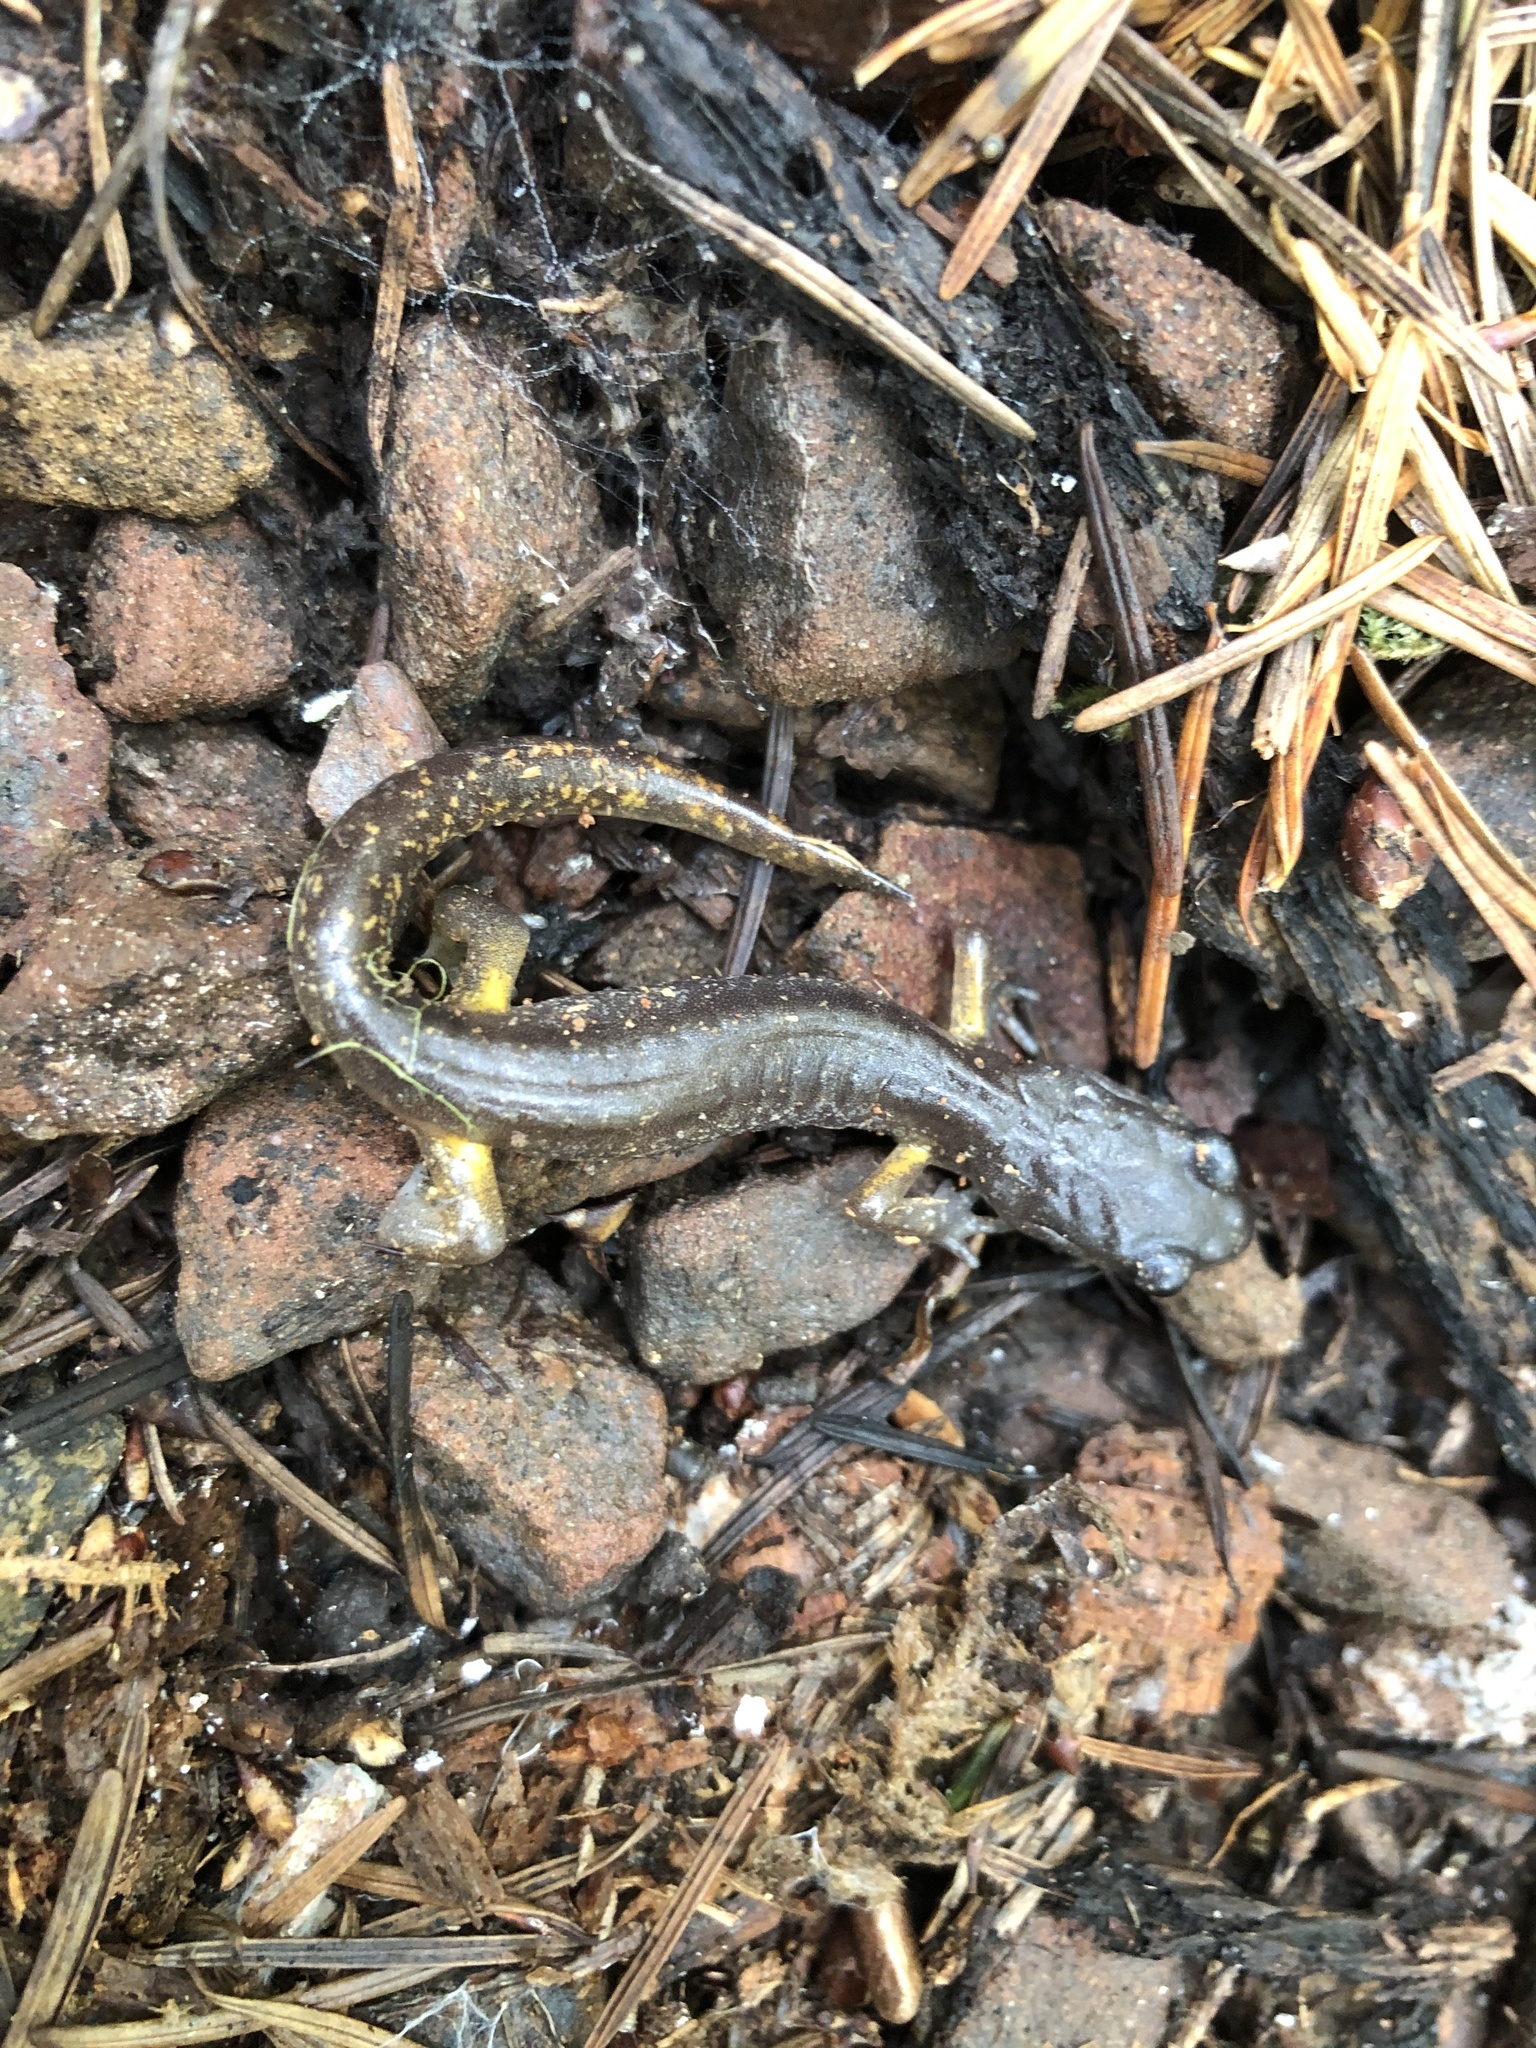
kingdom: Animalia
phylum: Chordata
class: Amphibia
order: Caudata
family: Plethodontidae
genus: Ensatina
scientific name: Ensatina eschscholtzii
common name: Ensatina
